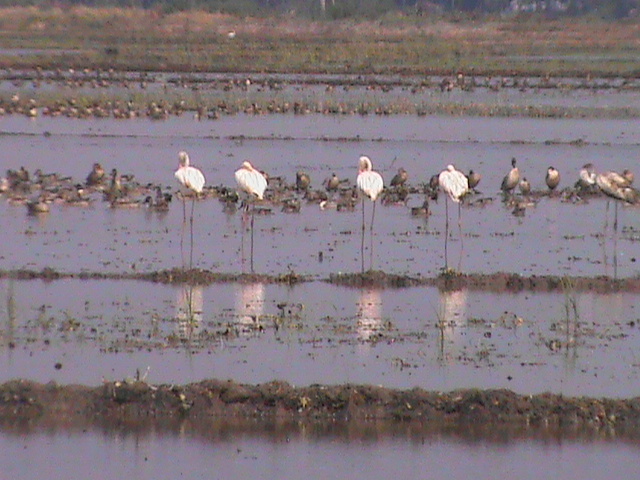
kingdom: Animalia
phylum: Chordata
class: Aves
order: Phoenicopteriformes
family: Phoenicopteridae
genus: Phoenicopterus
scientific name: Phoenicopterus roseus
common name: Greater flamingo
